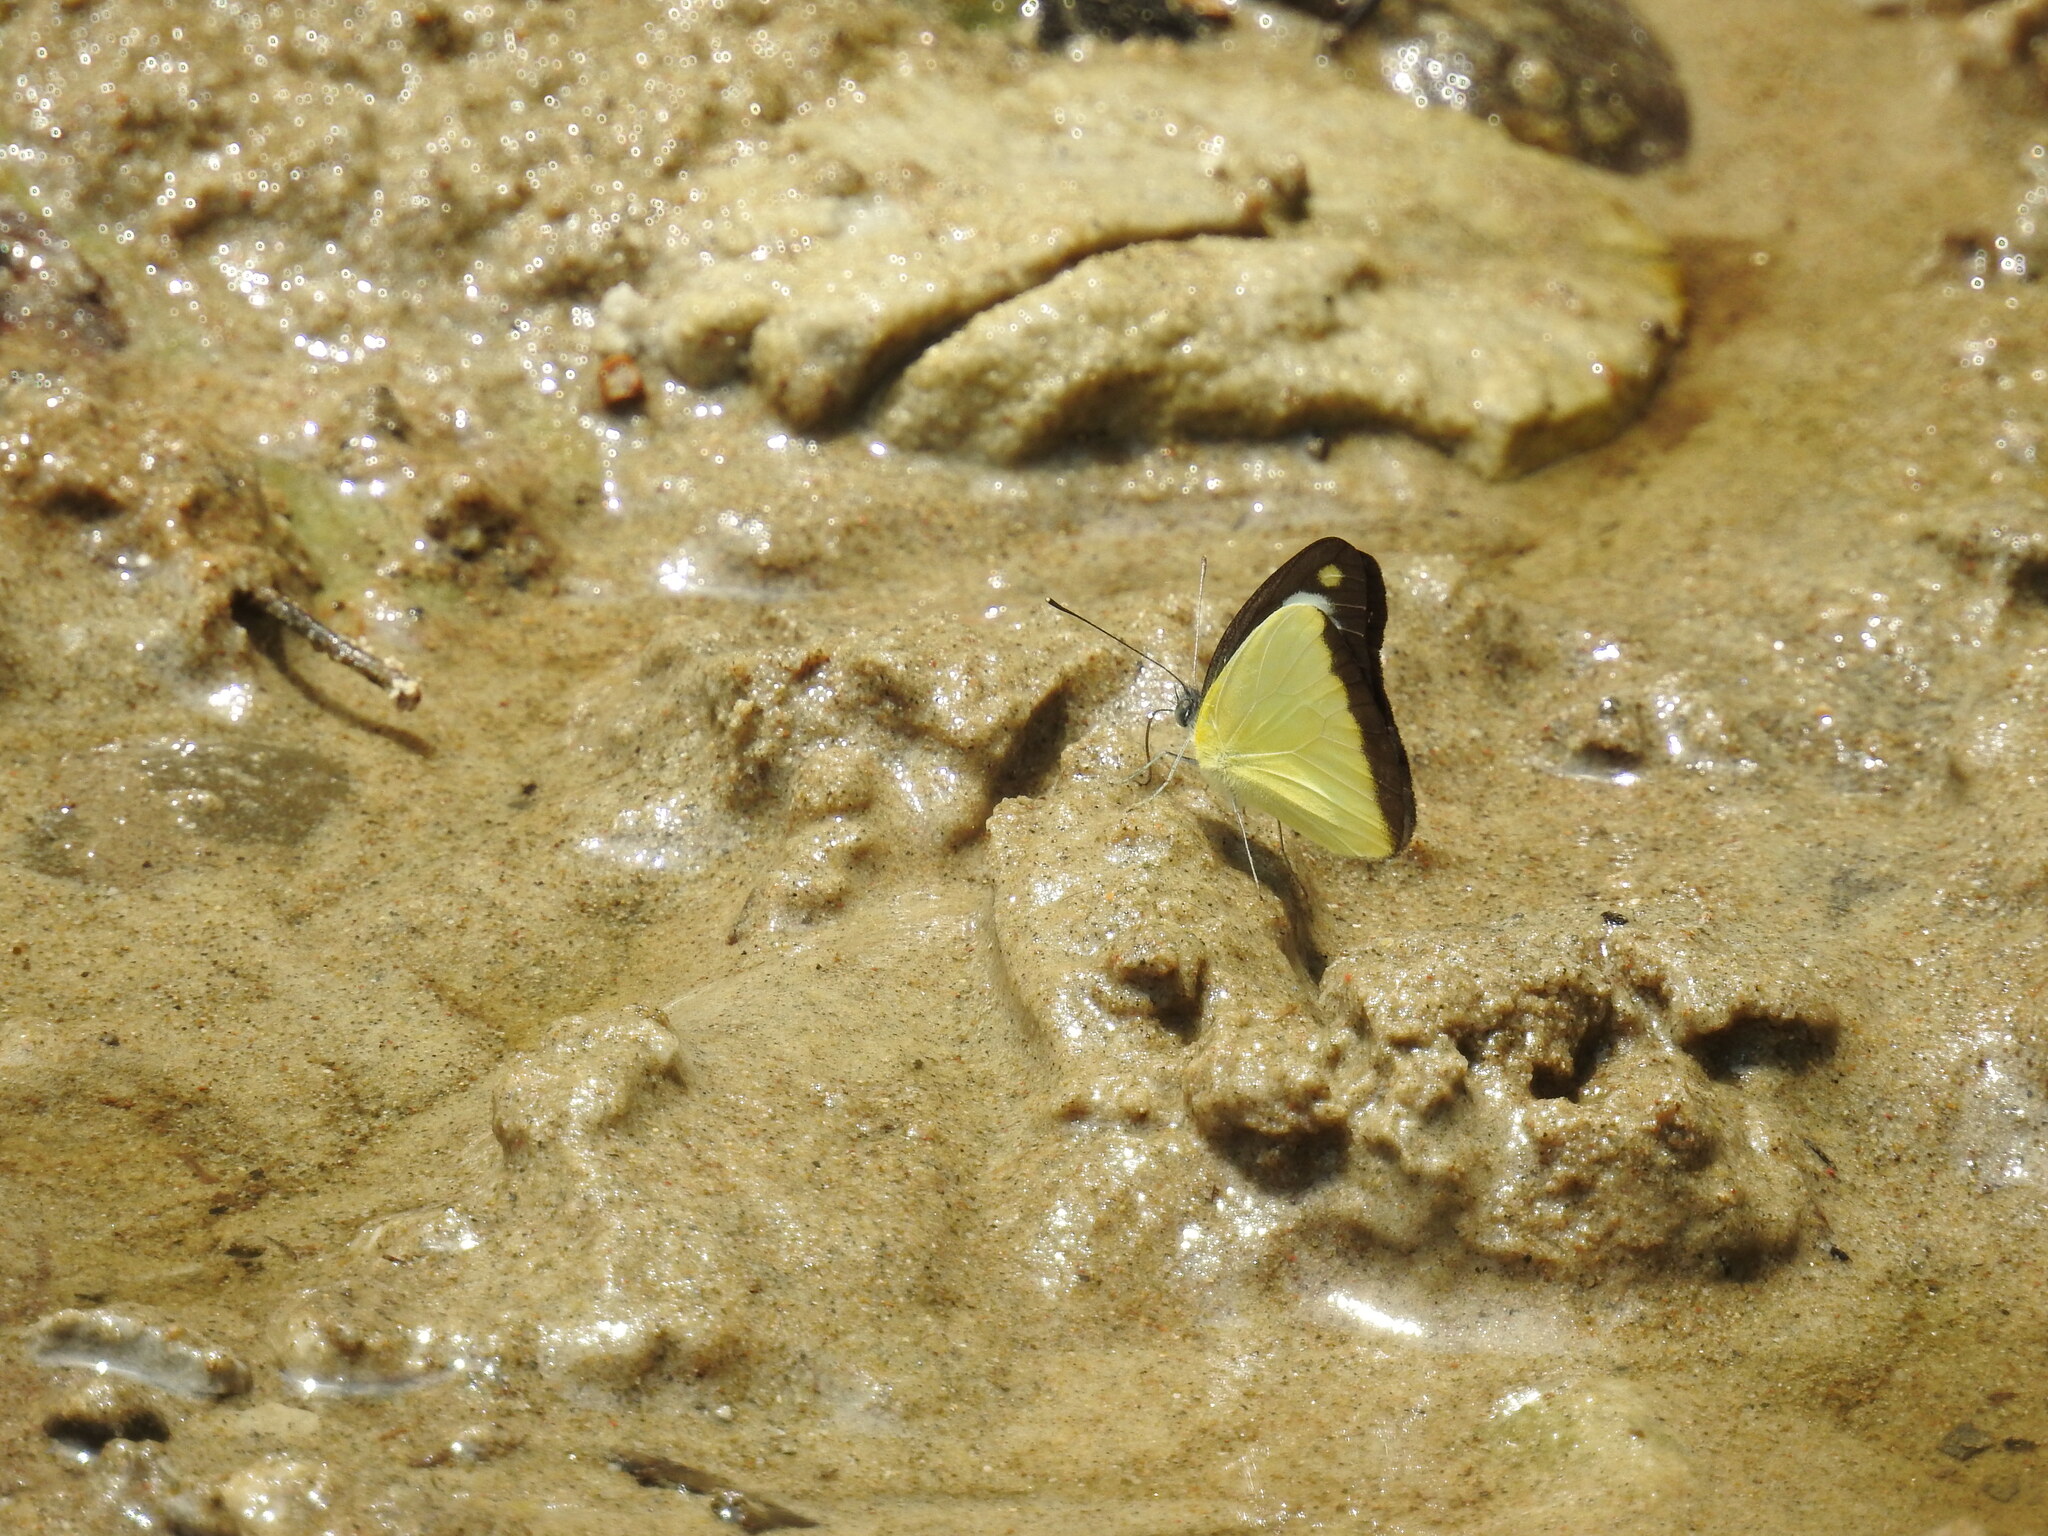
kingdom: Animalia
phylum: Arthropoda
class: Insecta
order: Lepidoptera
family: Pieridae
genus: Appias
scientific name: Appias lyncida
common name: Chocolate albatross
